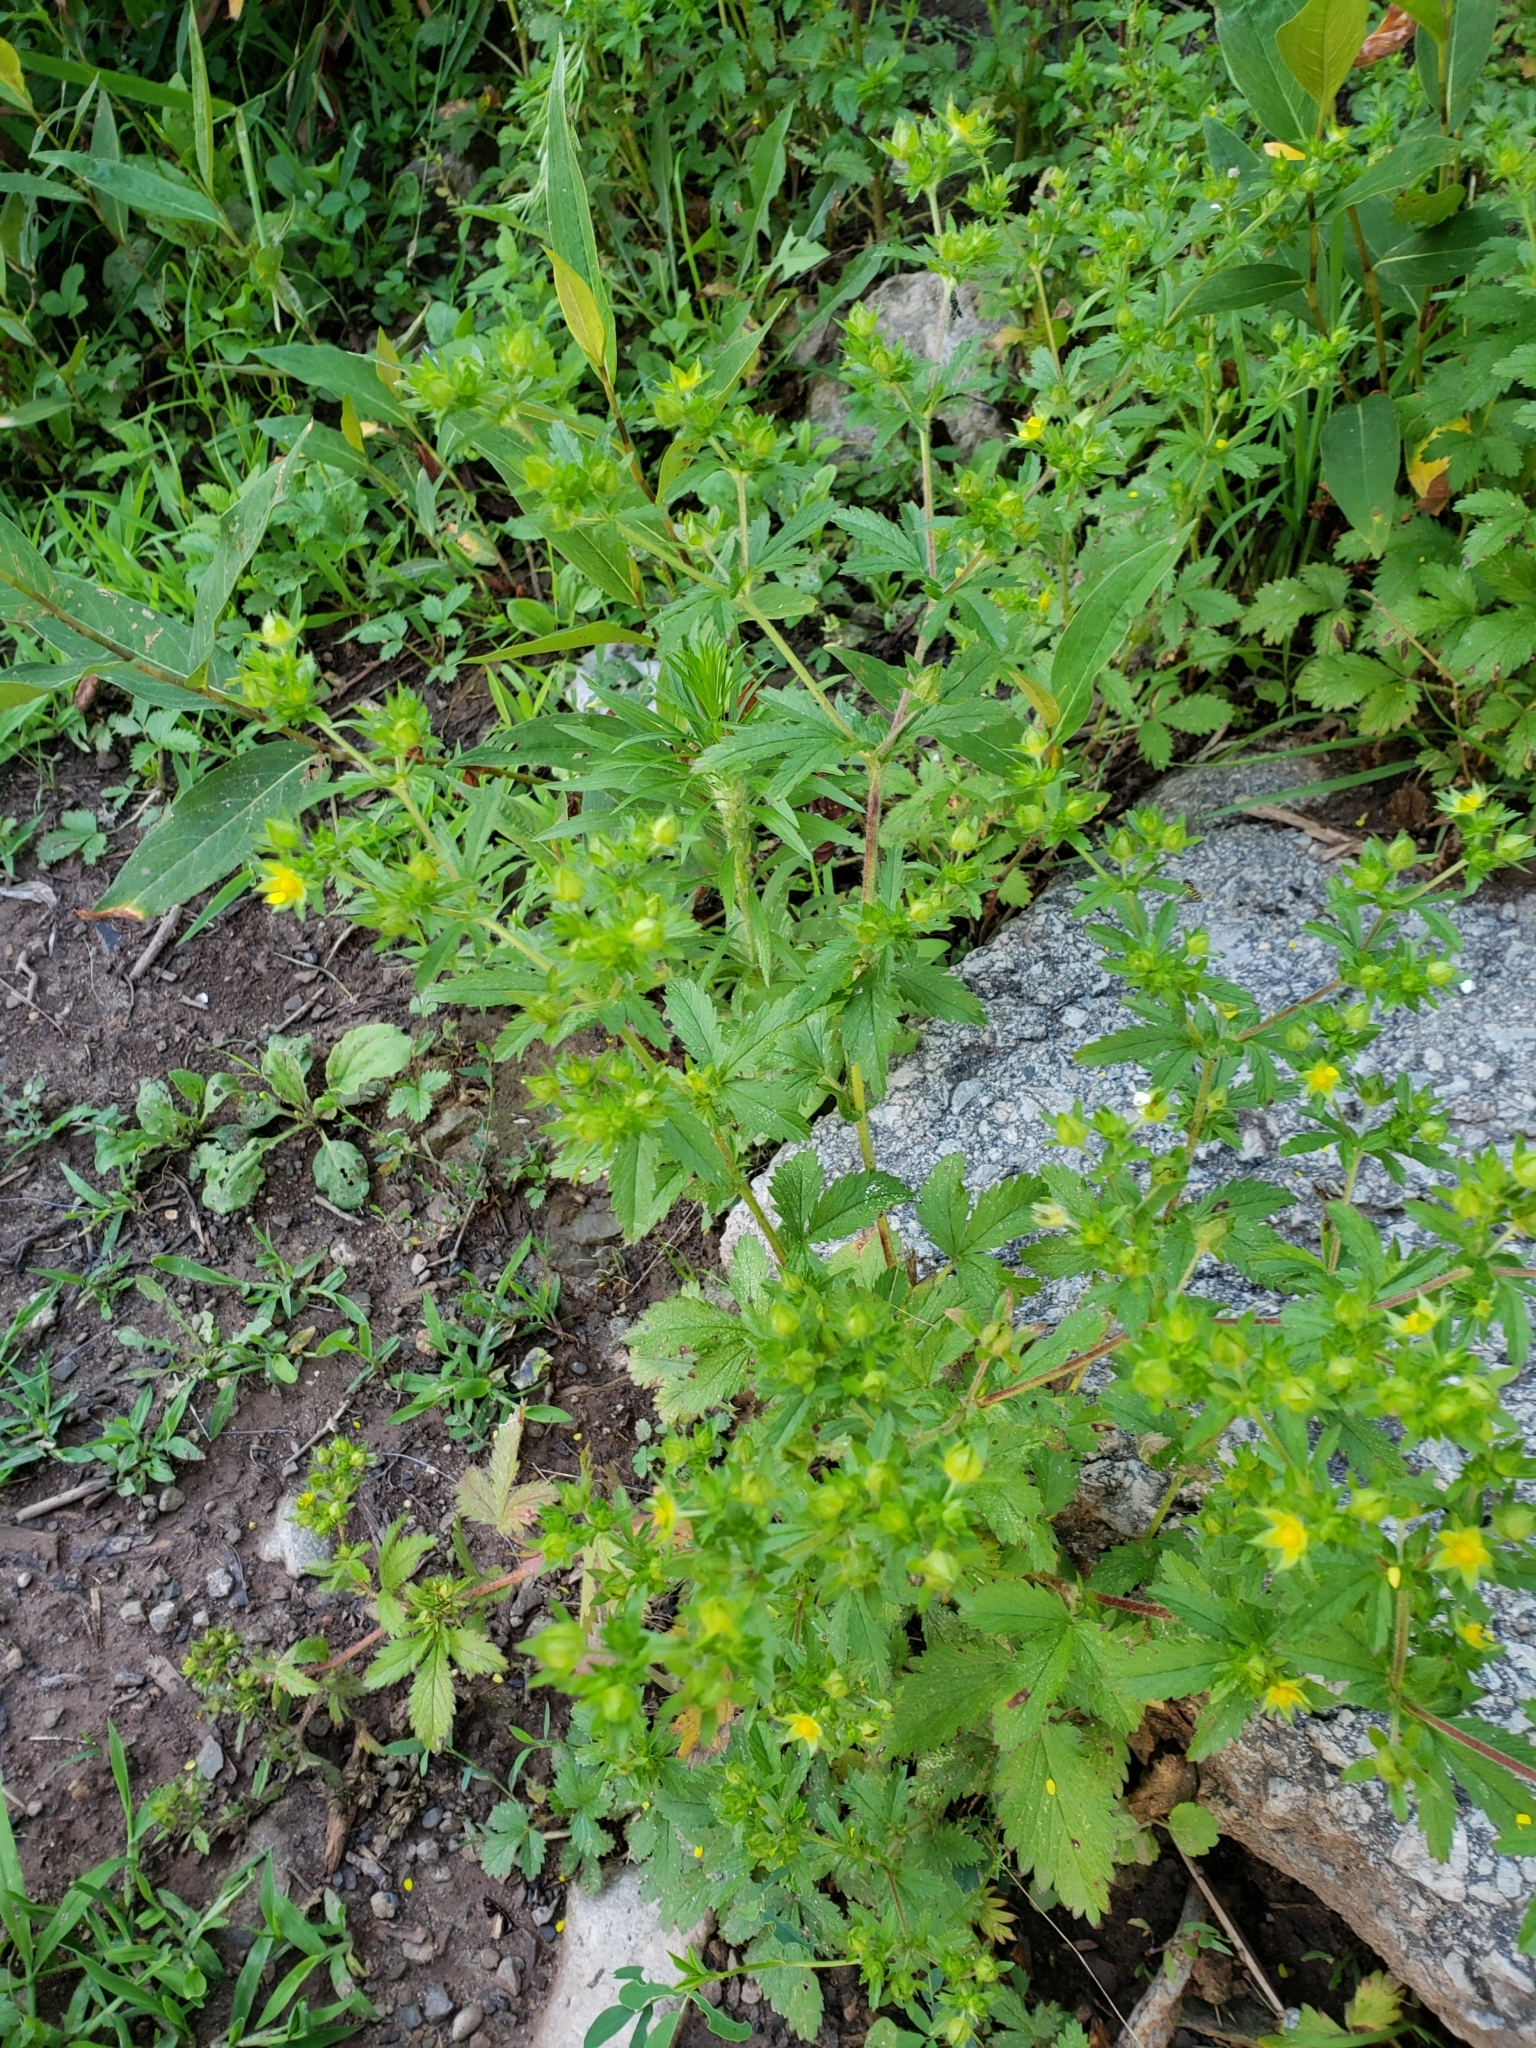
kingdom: Plantae
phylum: Tracheophyta
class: Magnoliopsida
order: Rosales
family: Rosaceae
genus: Potentilla
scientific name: Potentilla norvegica
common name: Ternate-leaved cinquefoil
